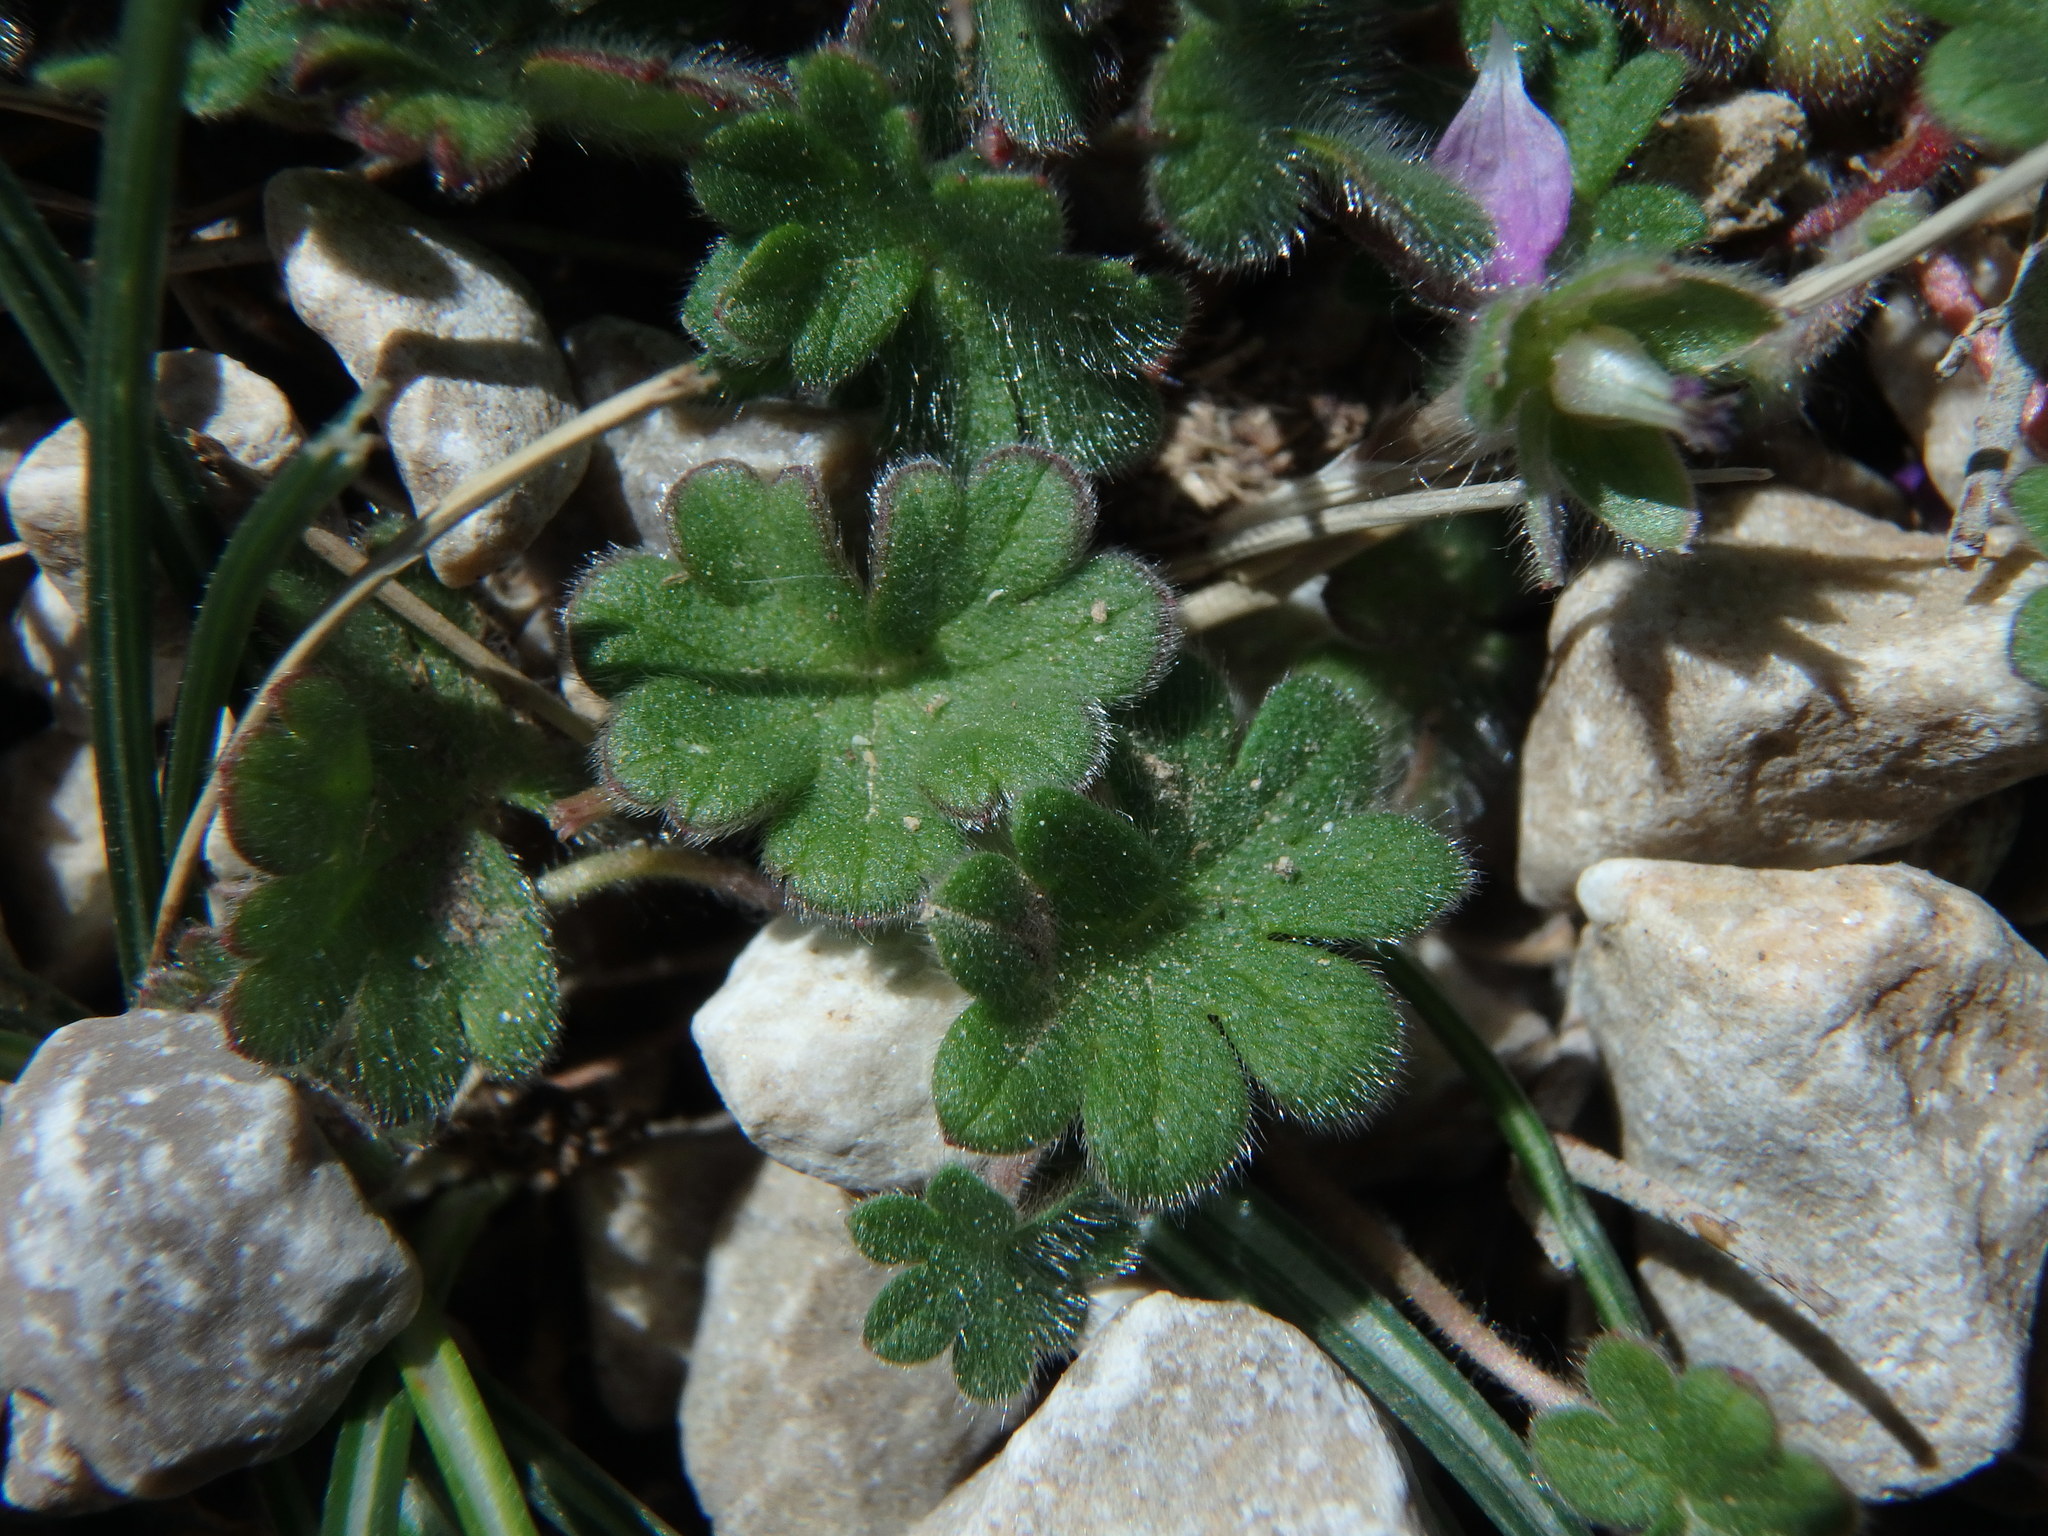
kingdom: Plantae
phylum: Tracheophyta
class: Magnoliopsida
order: Geraniales
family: Geraniaceae
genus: Geranium
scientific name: Geranium molle
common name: Dove's-foot crane's-bill
